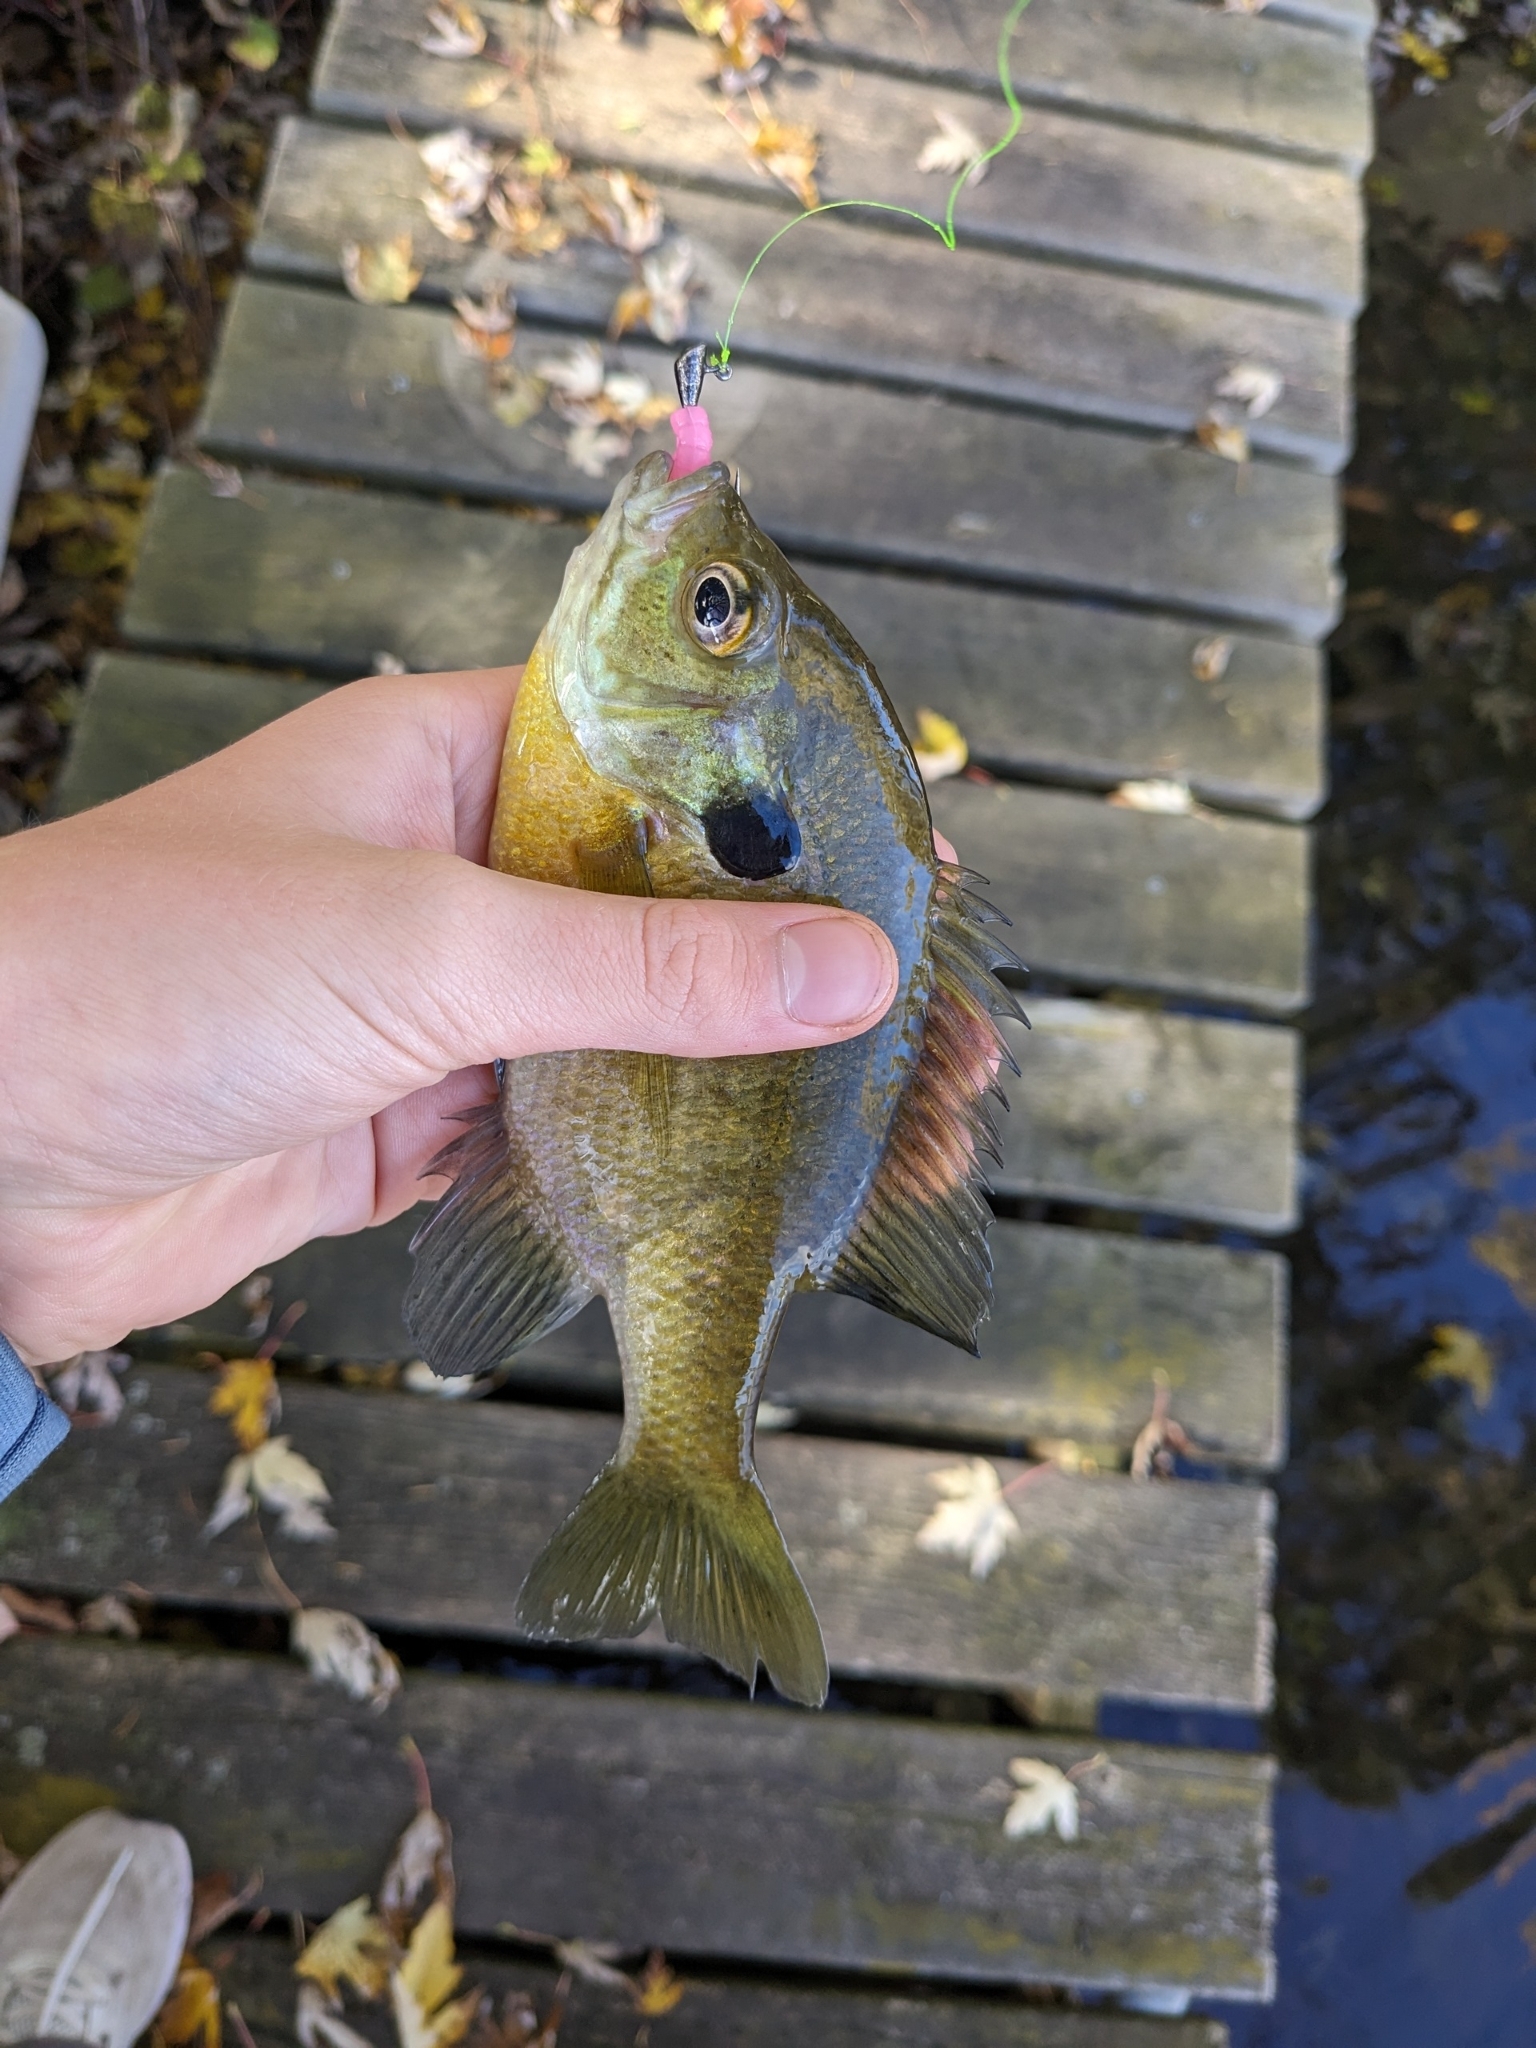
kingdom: Animalia
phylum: Chordata
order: Perciformes
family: Centrarchidae
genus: Lepomis
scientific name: Lepomis macrochirus
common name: Bluegill
